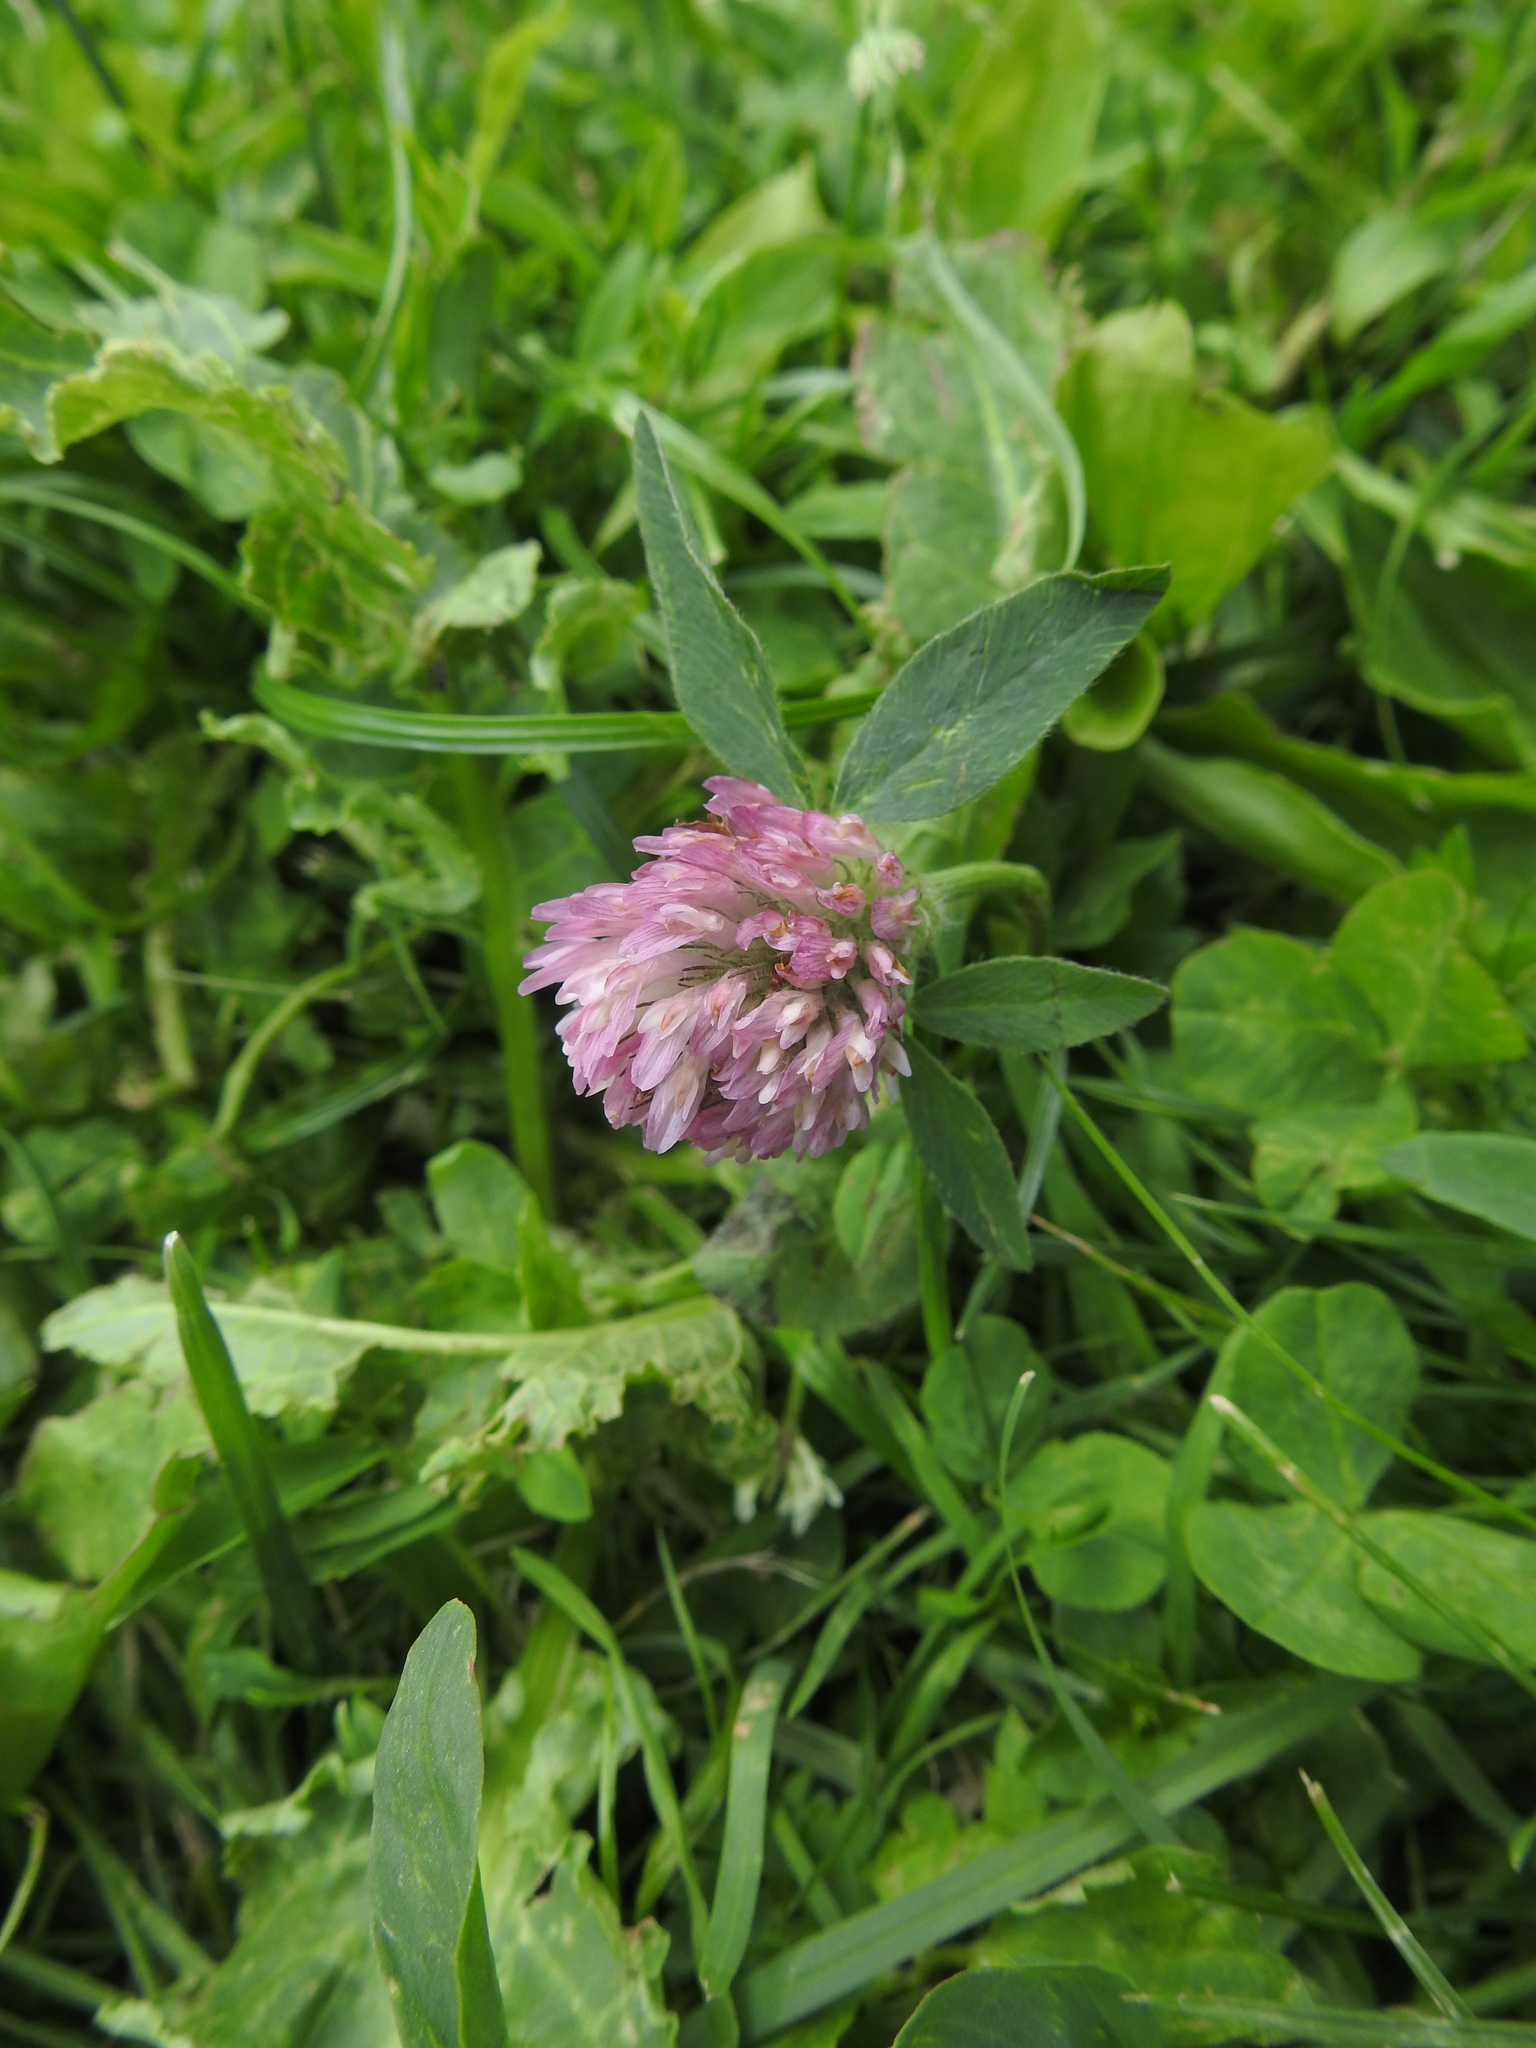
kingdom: Plantae
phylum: Tracheophyta
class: Magnoliopsida
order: Fabales
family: Fabaceae
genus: Trifolium
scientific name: Trifolium pratense
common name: Red clover
